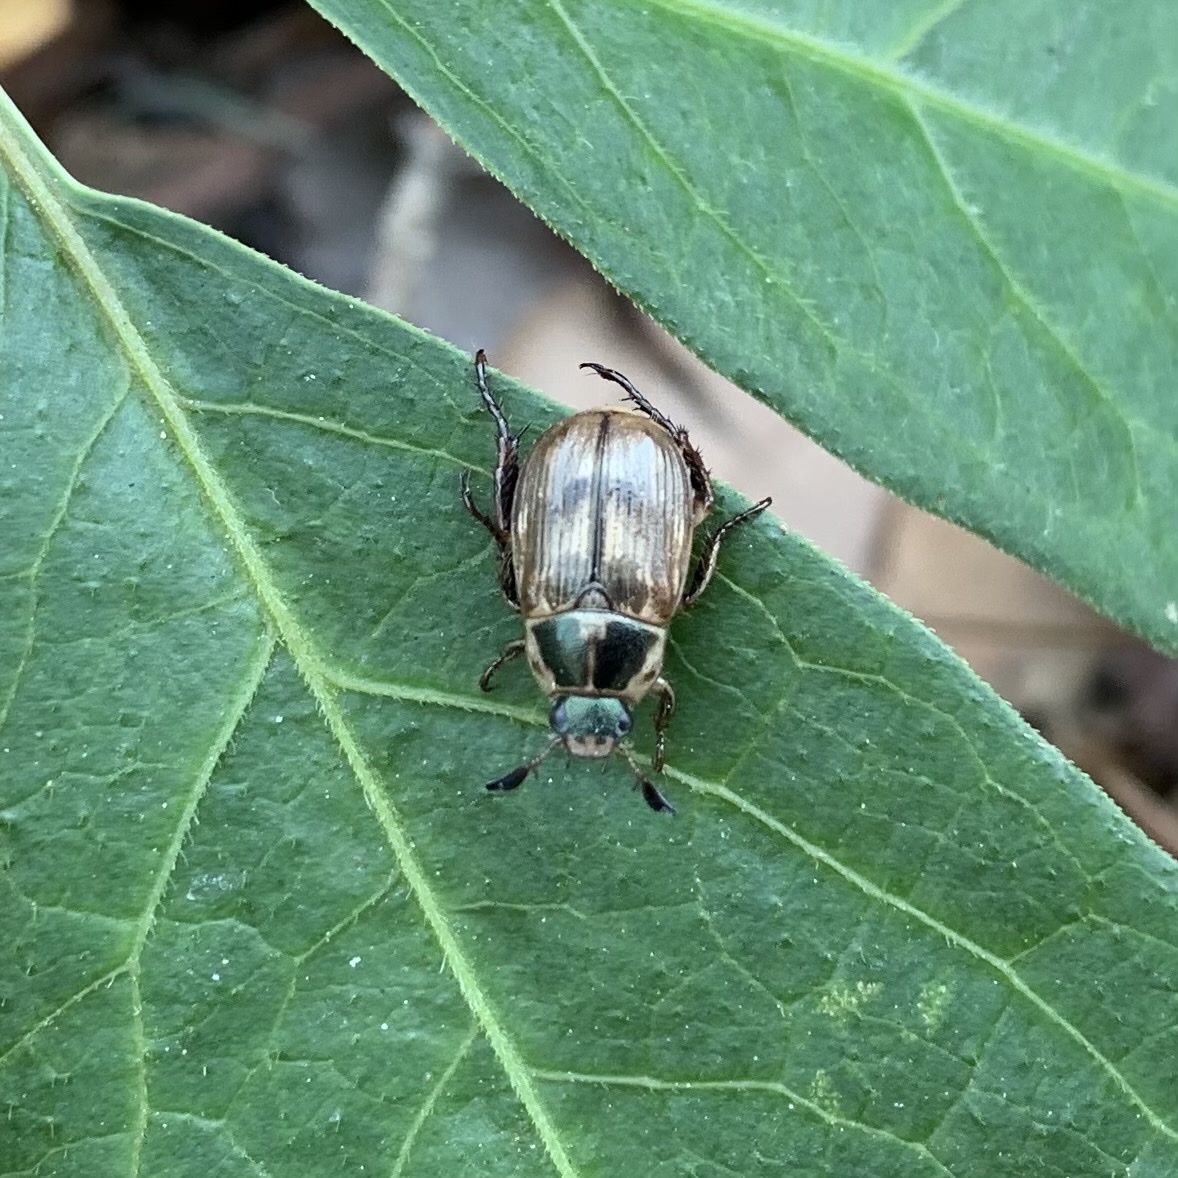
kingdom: Animalia
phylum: Arthropoda
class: Insecta
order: Coleoptera
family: Scarabaeidae
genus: Exomala
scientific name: Exomala orientalis
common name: Oriental beetle
